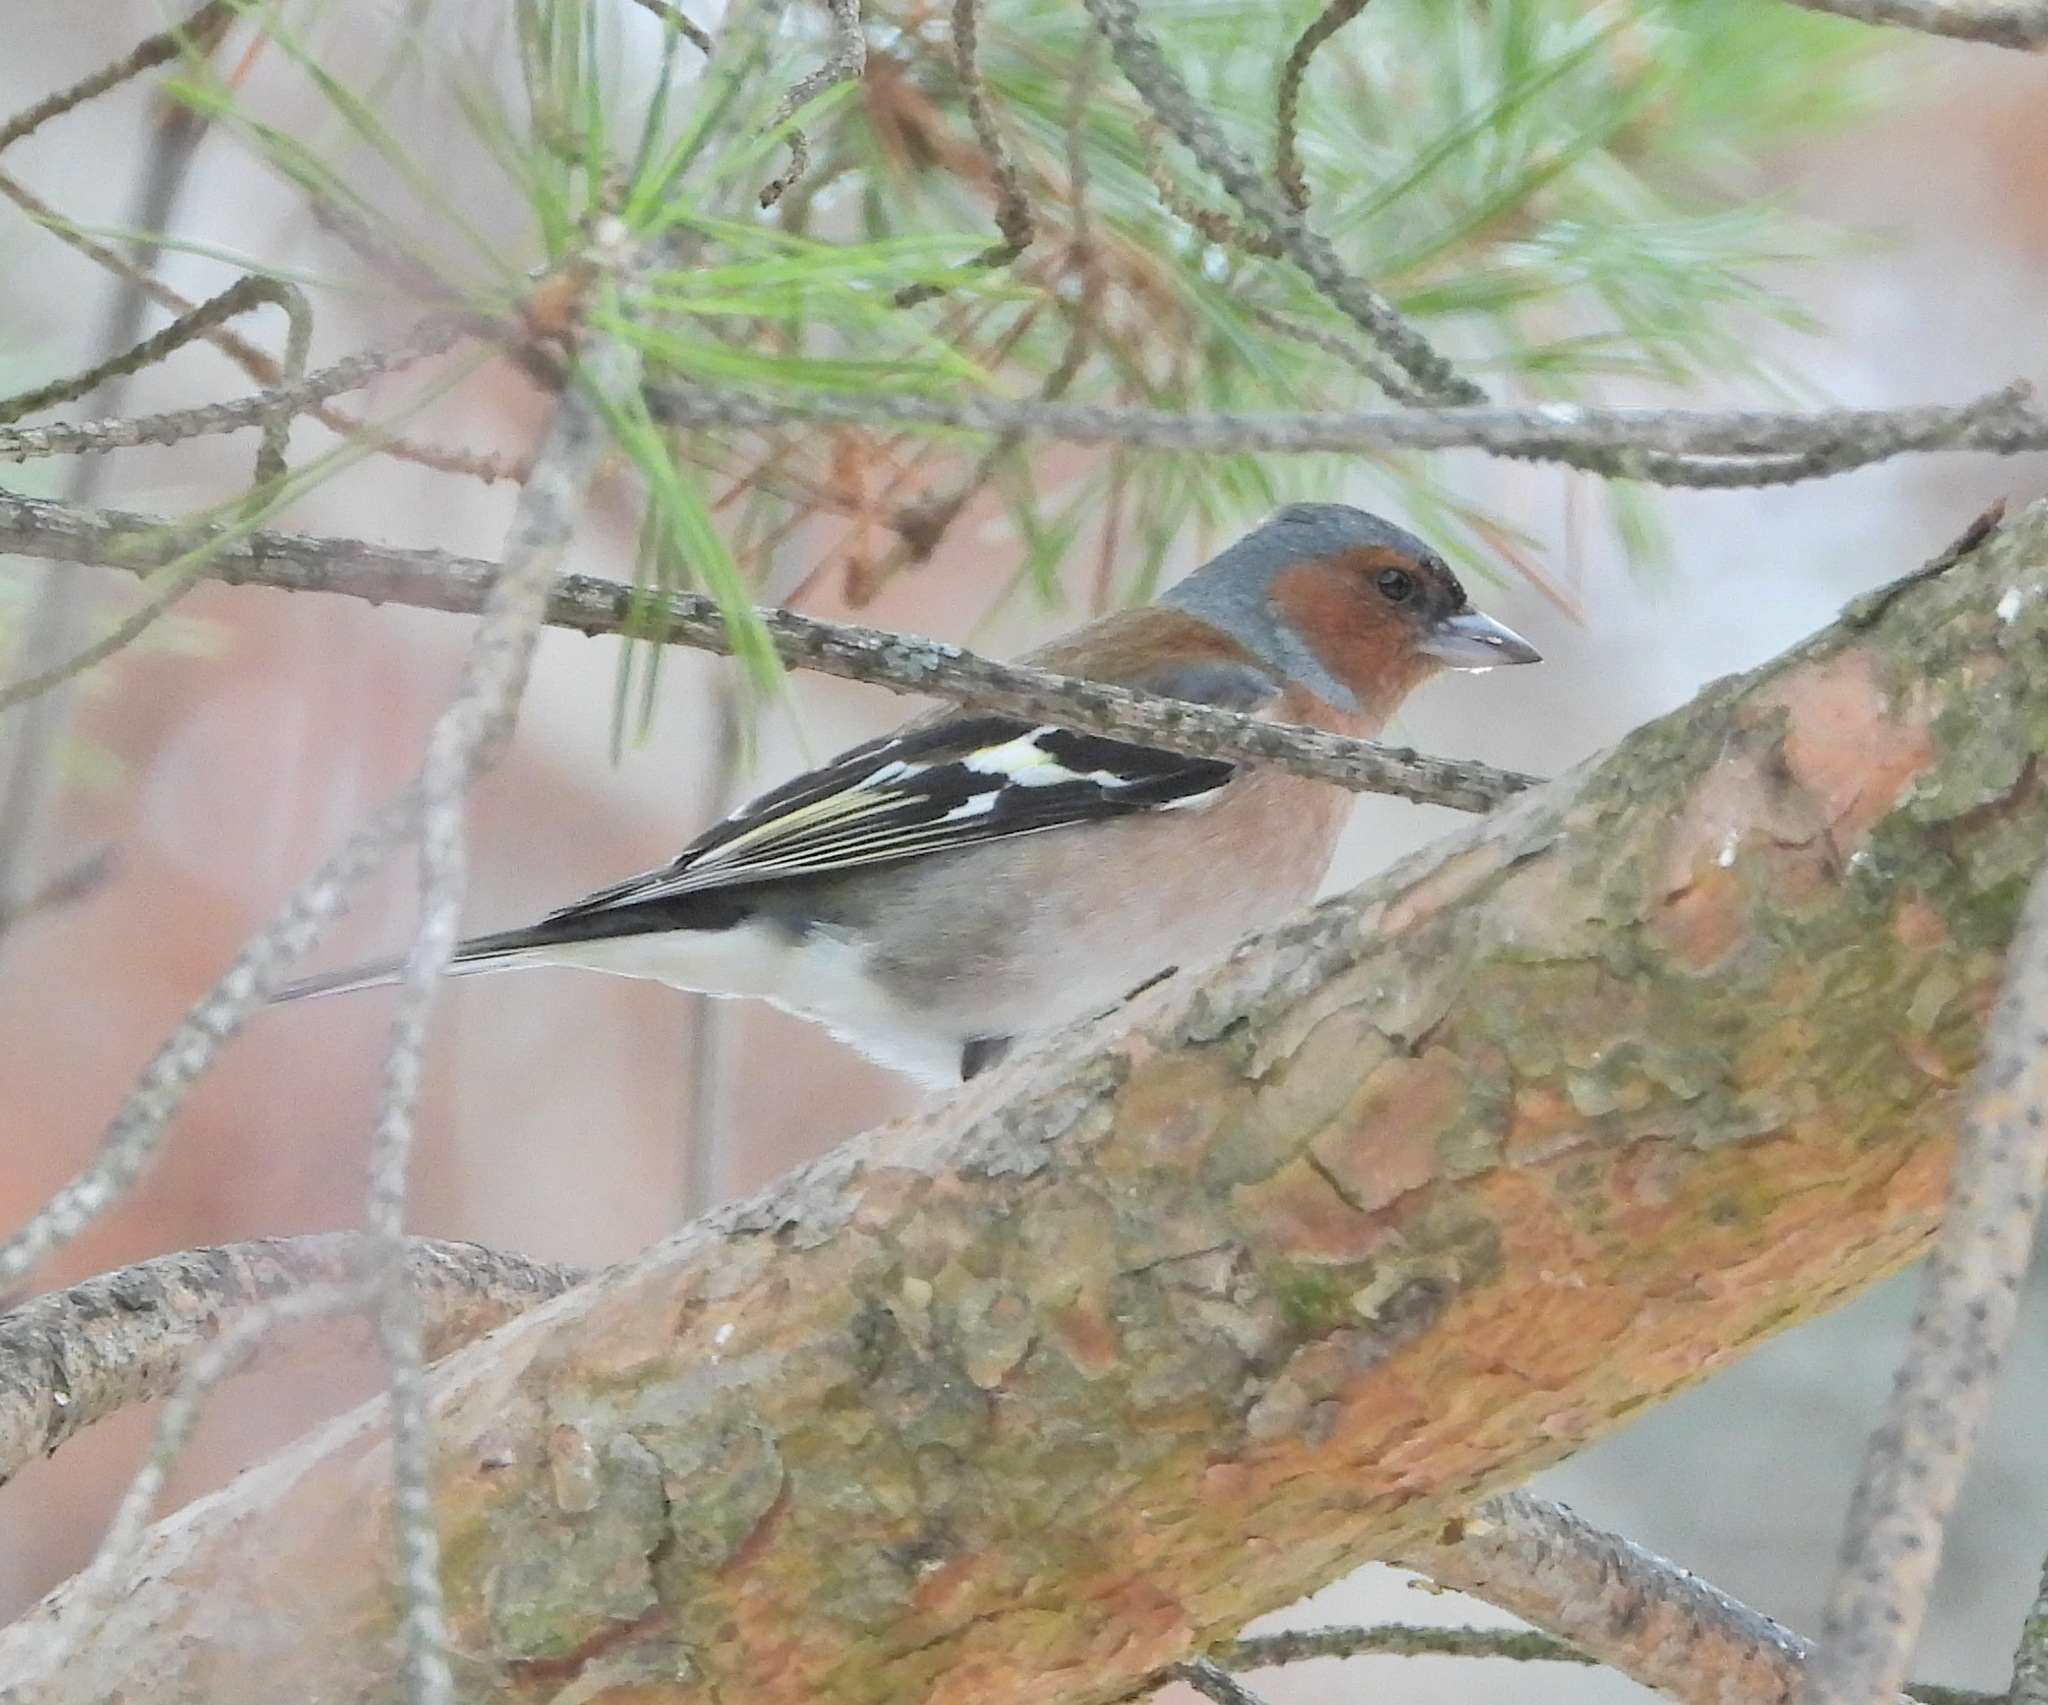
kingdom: Animalia
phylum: Chordata
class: Aves
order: Passeriformes
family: Fringillidae
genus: Fringilla
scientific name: Fringilla coelebs
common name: Common chaffinch
